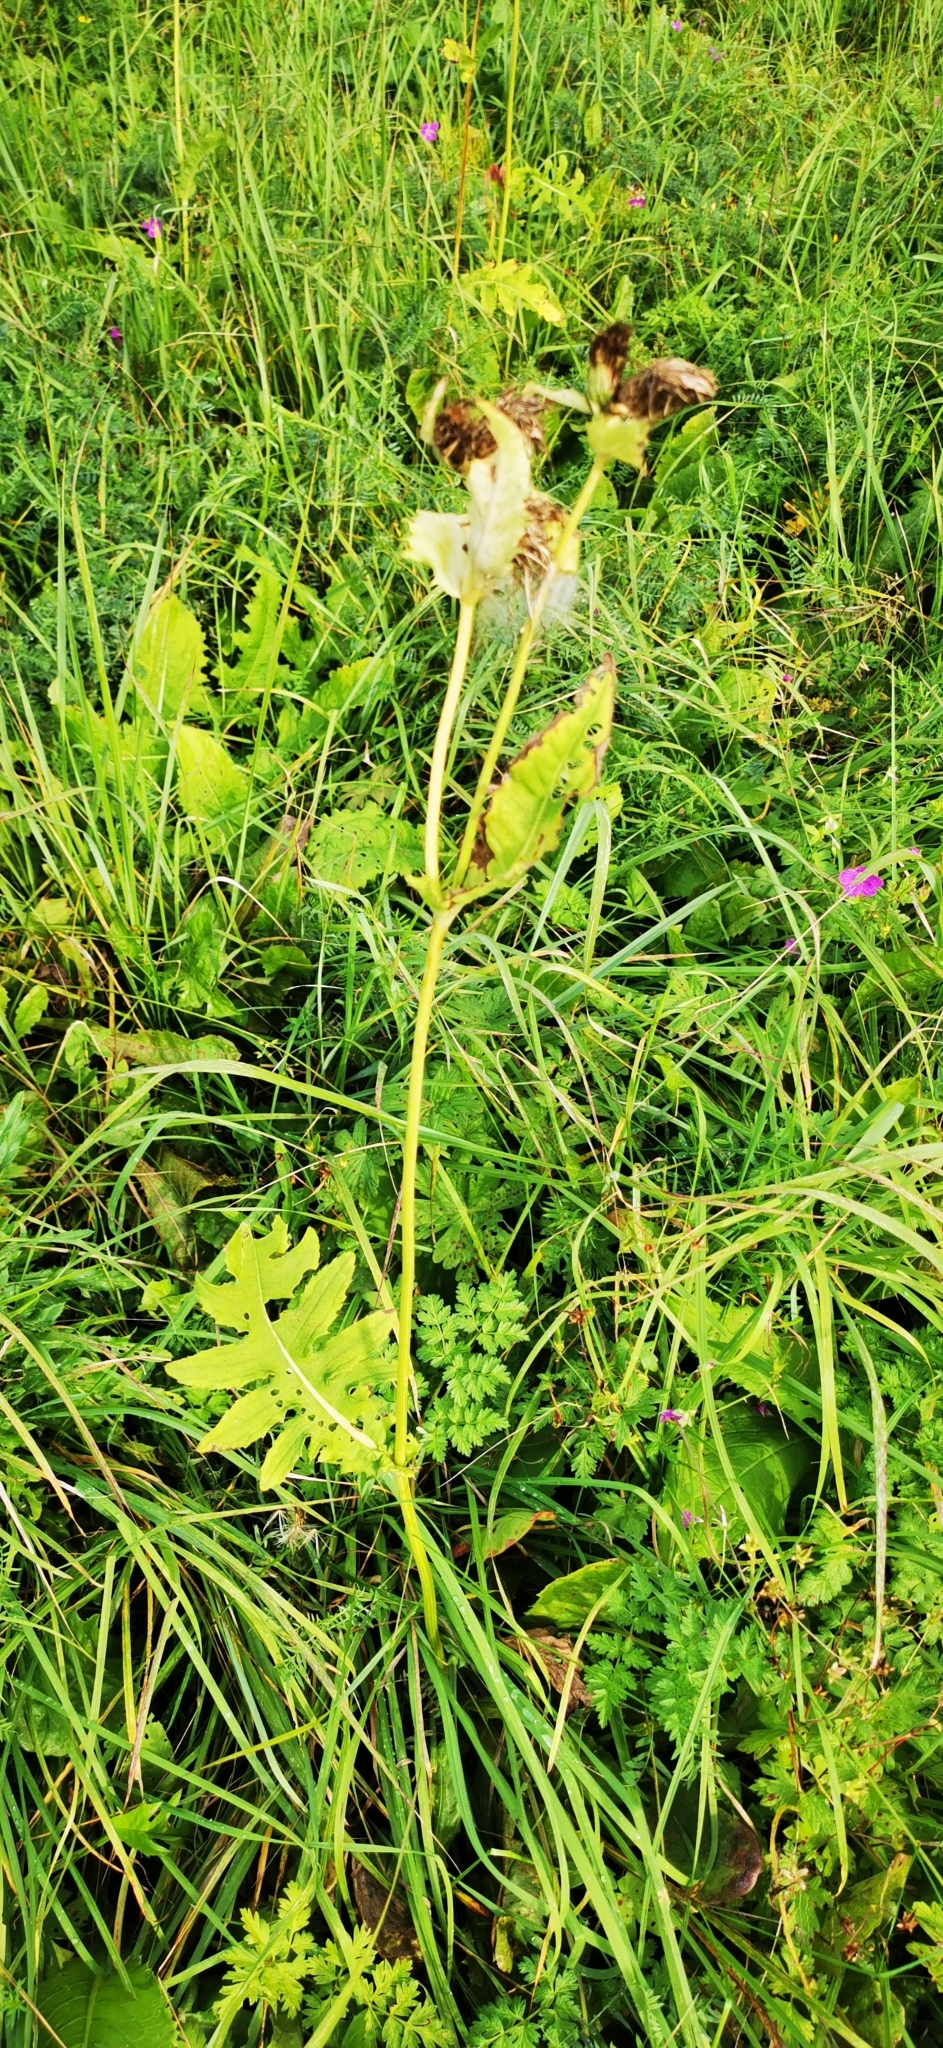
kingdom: Plantae
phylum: Tracheophyta
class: Magnoliopsida
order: Asterales
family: Asteraceae
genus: Cirsium
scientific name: Cirsium oleraceum
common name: Cabbage thistle
